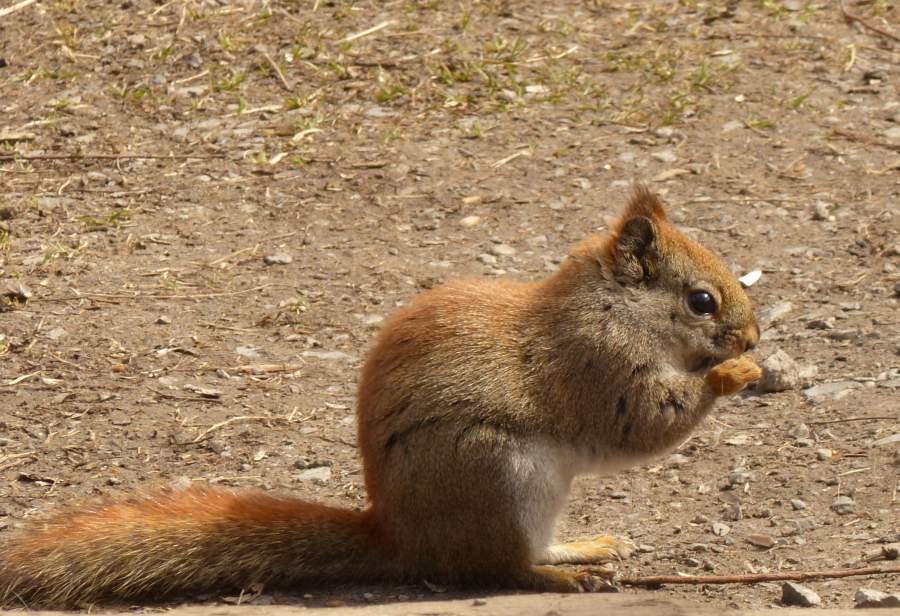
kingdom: Animalia
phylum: Chordata
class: Mammalia
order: Rodentia
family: Sciuridae
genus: Tamiasciurus
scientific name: Tamiasciurus hudsonicus
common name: Red squirrel
